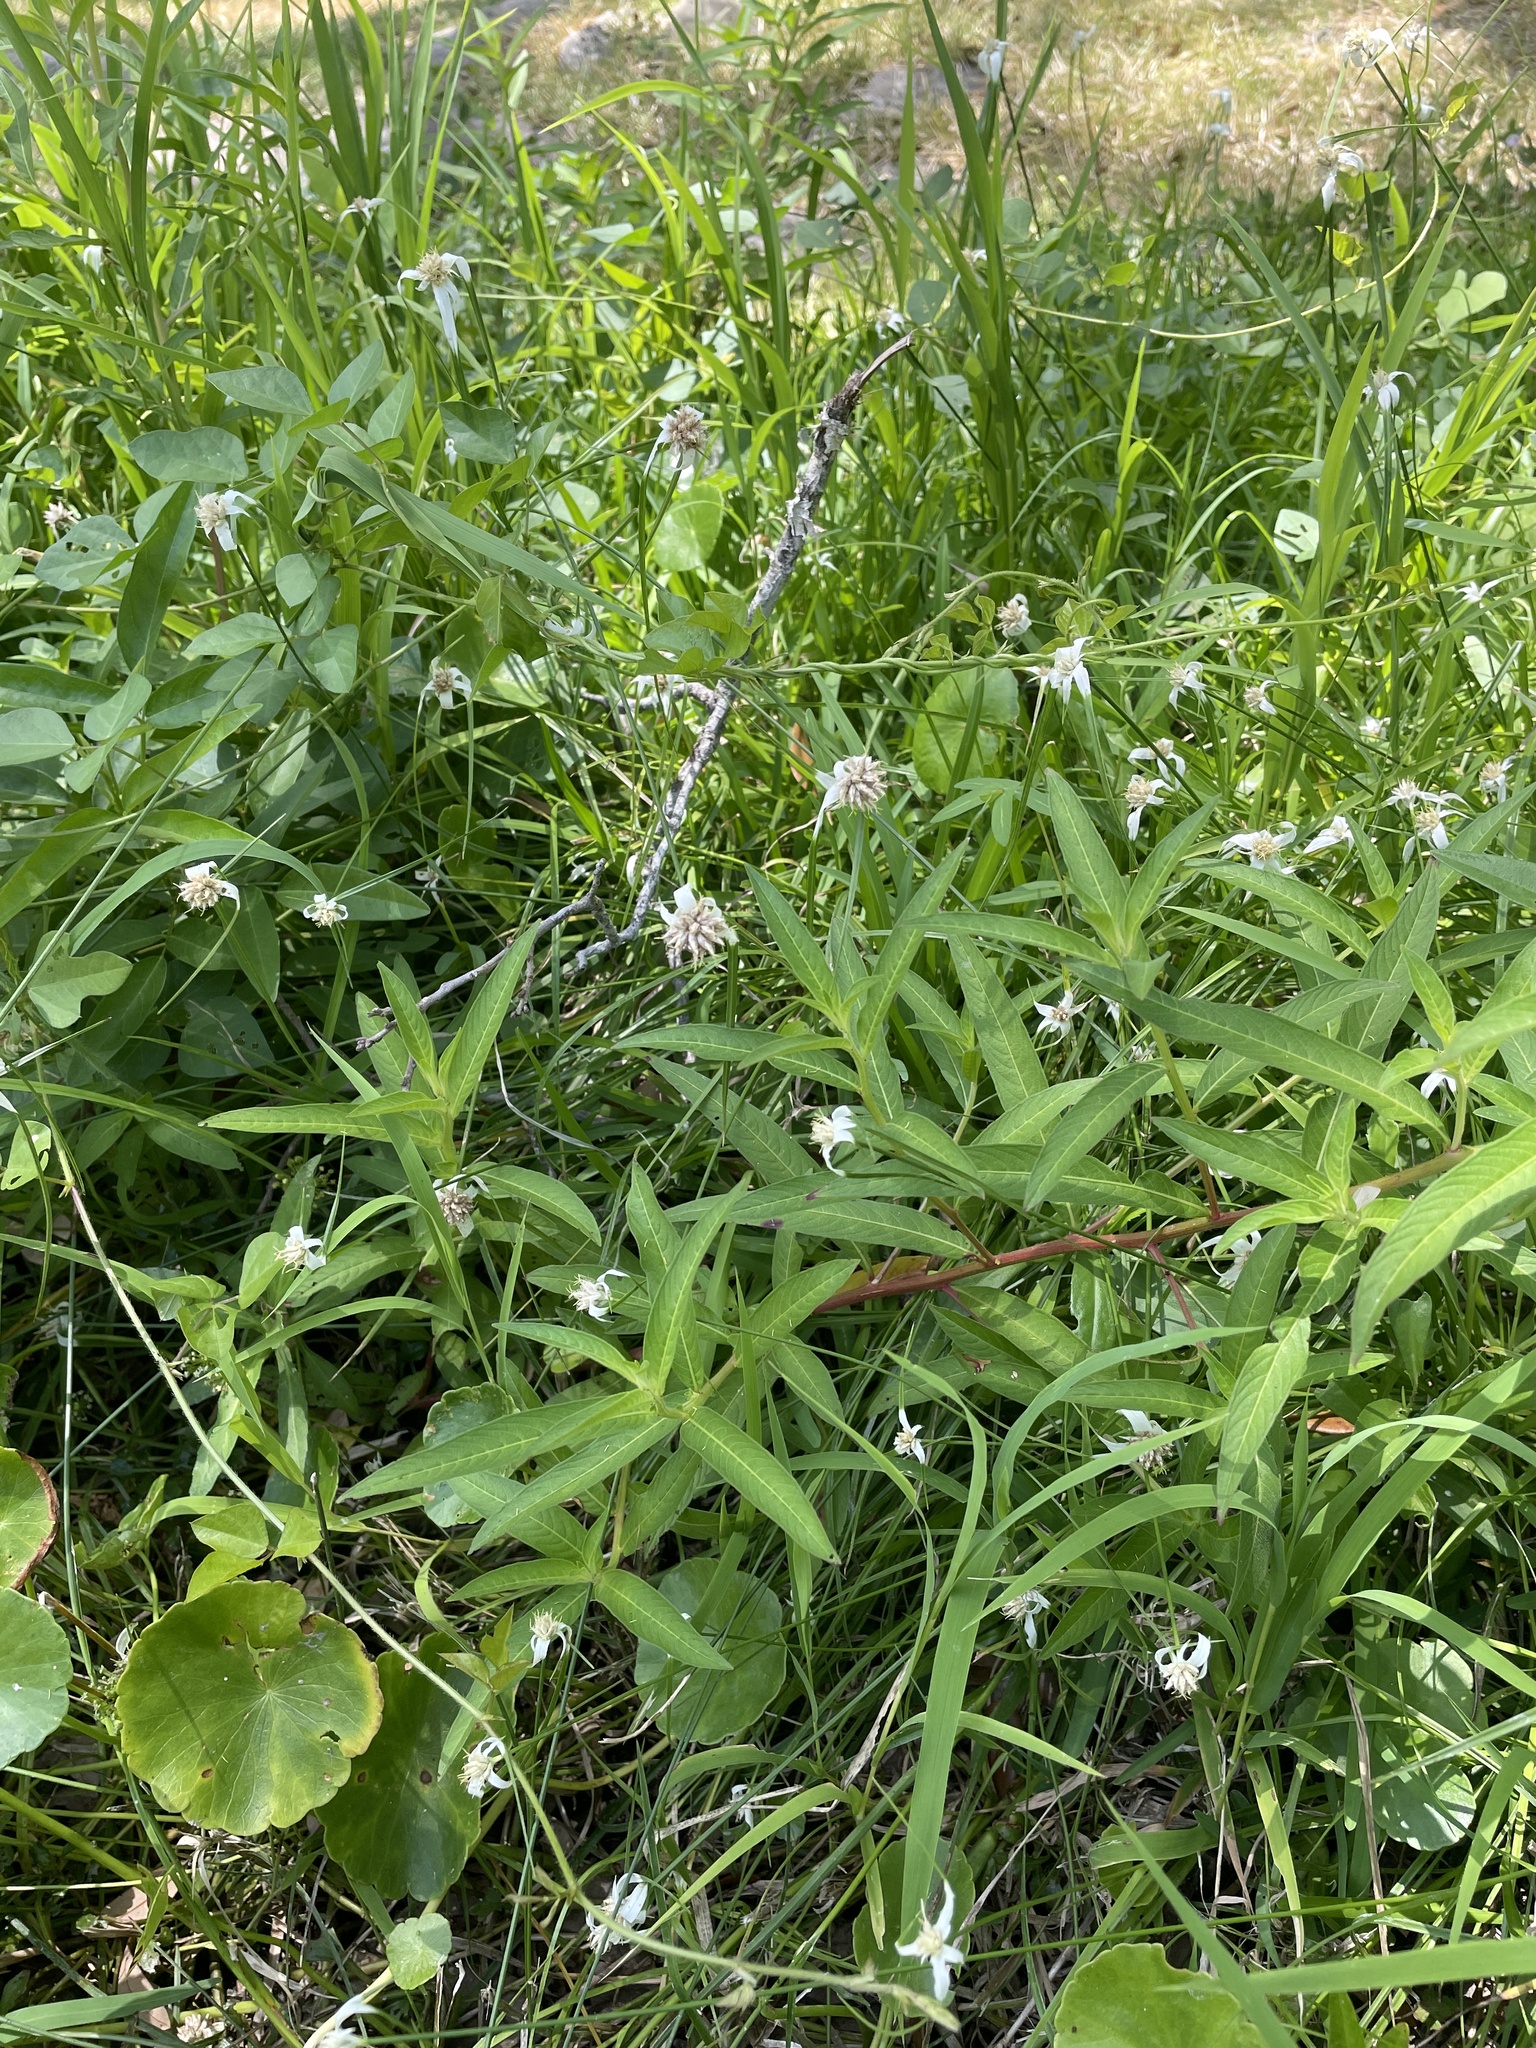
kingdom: Plantae
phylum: Tracheophyta
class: Liliopsida
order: Poales
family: Cyperaceae
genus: Rhynchospora
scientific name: Rhynchospora colorata
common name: Star sedge
